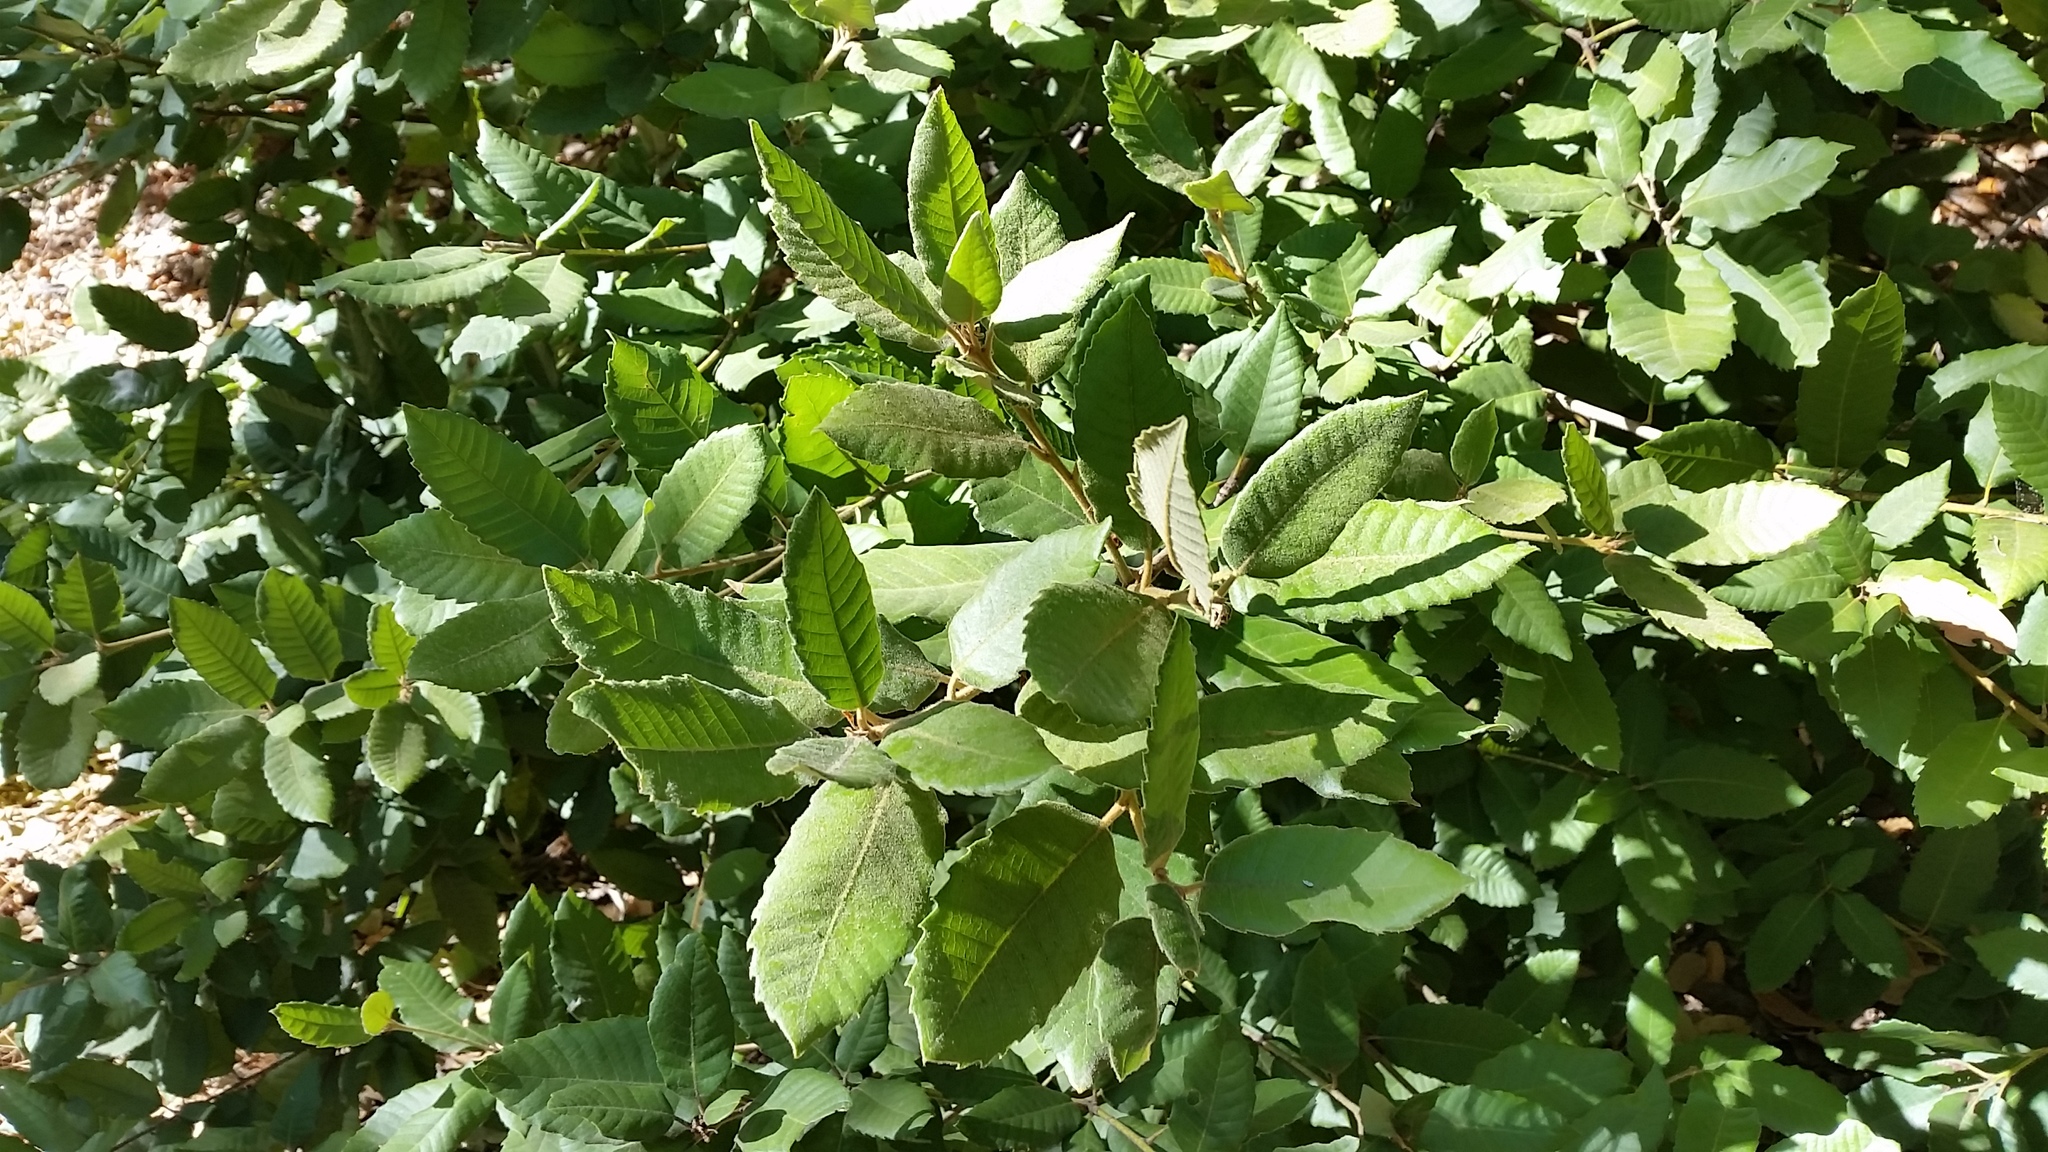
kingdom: Plantae
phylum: Tracheophyta
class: Magnoliopsida
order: Fagales
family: Fagaceae
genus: Notholithocarpus
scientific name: Notholithocarpus densiflorus
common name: Tan bark oak
